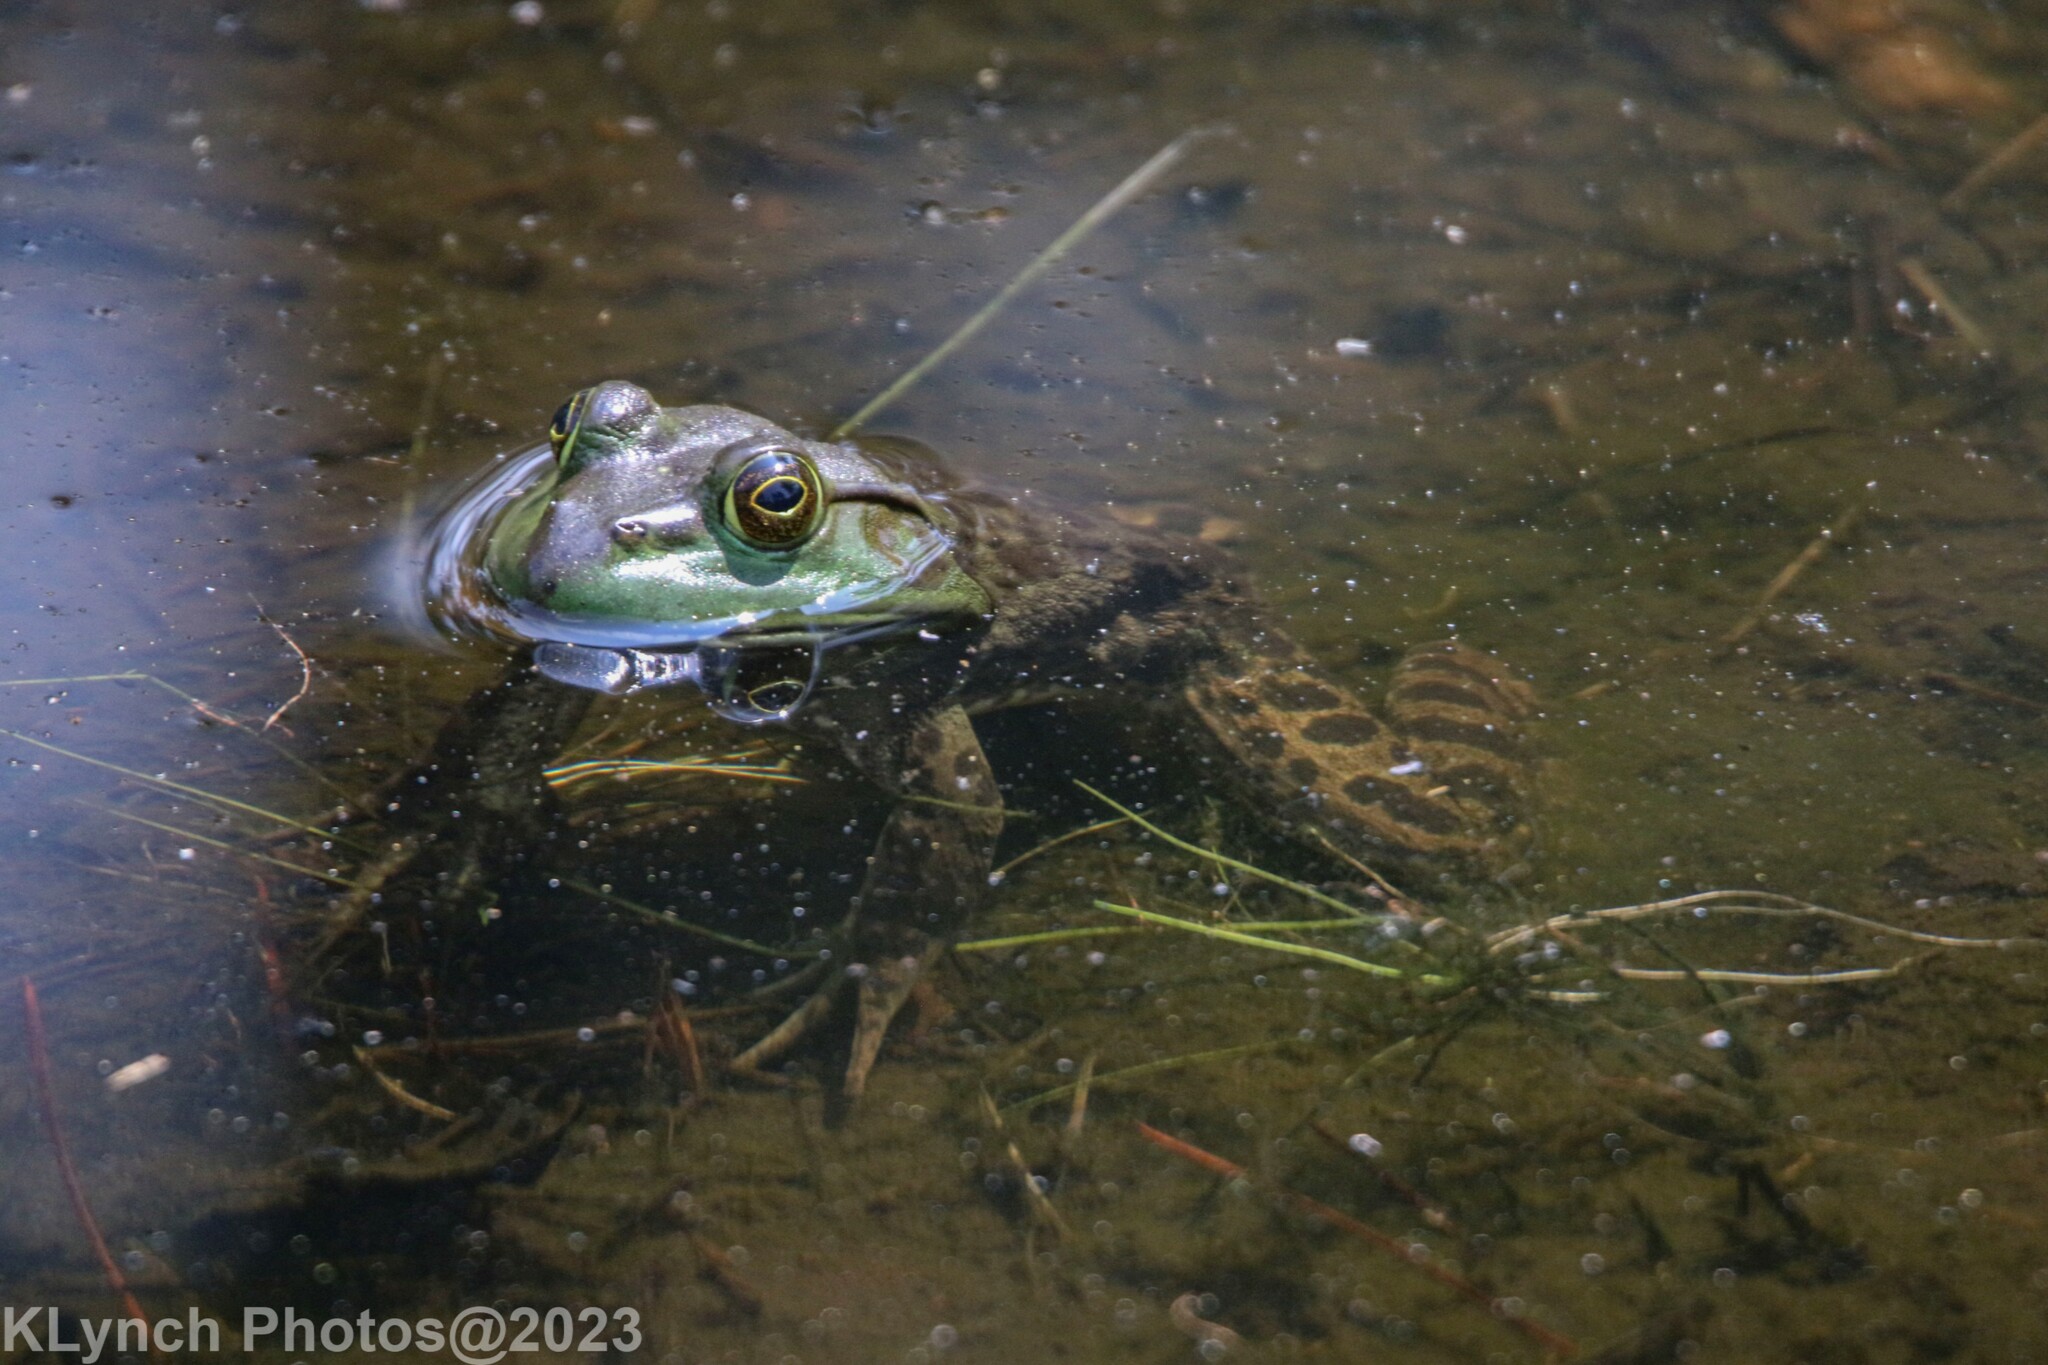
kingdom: Animalia
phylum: Chordata
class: Amphibia
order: Anura
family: Ranidae
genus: Lithobates
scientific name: Lithobates catesbeianus
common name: American bullfrog
